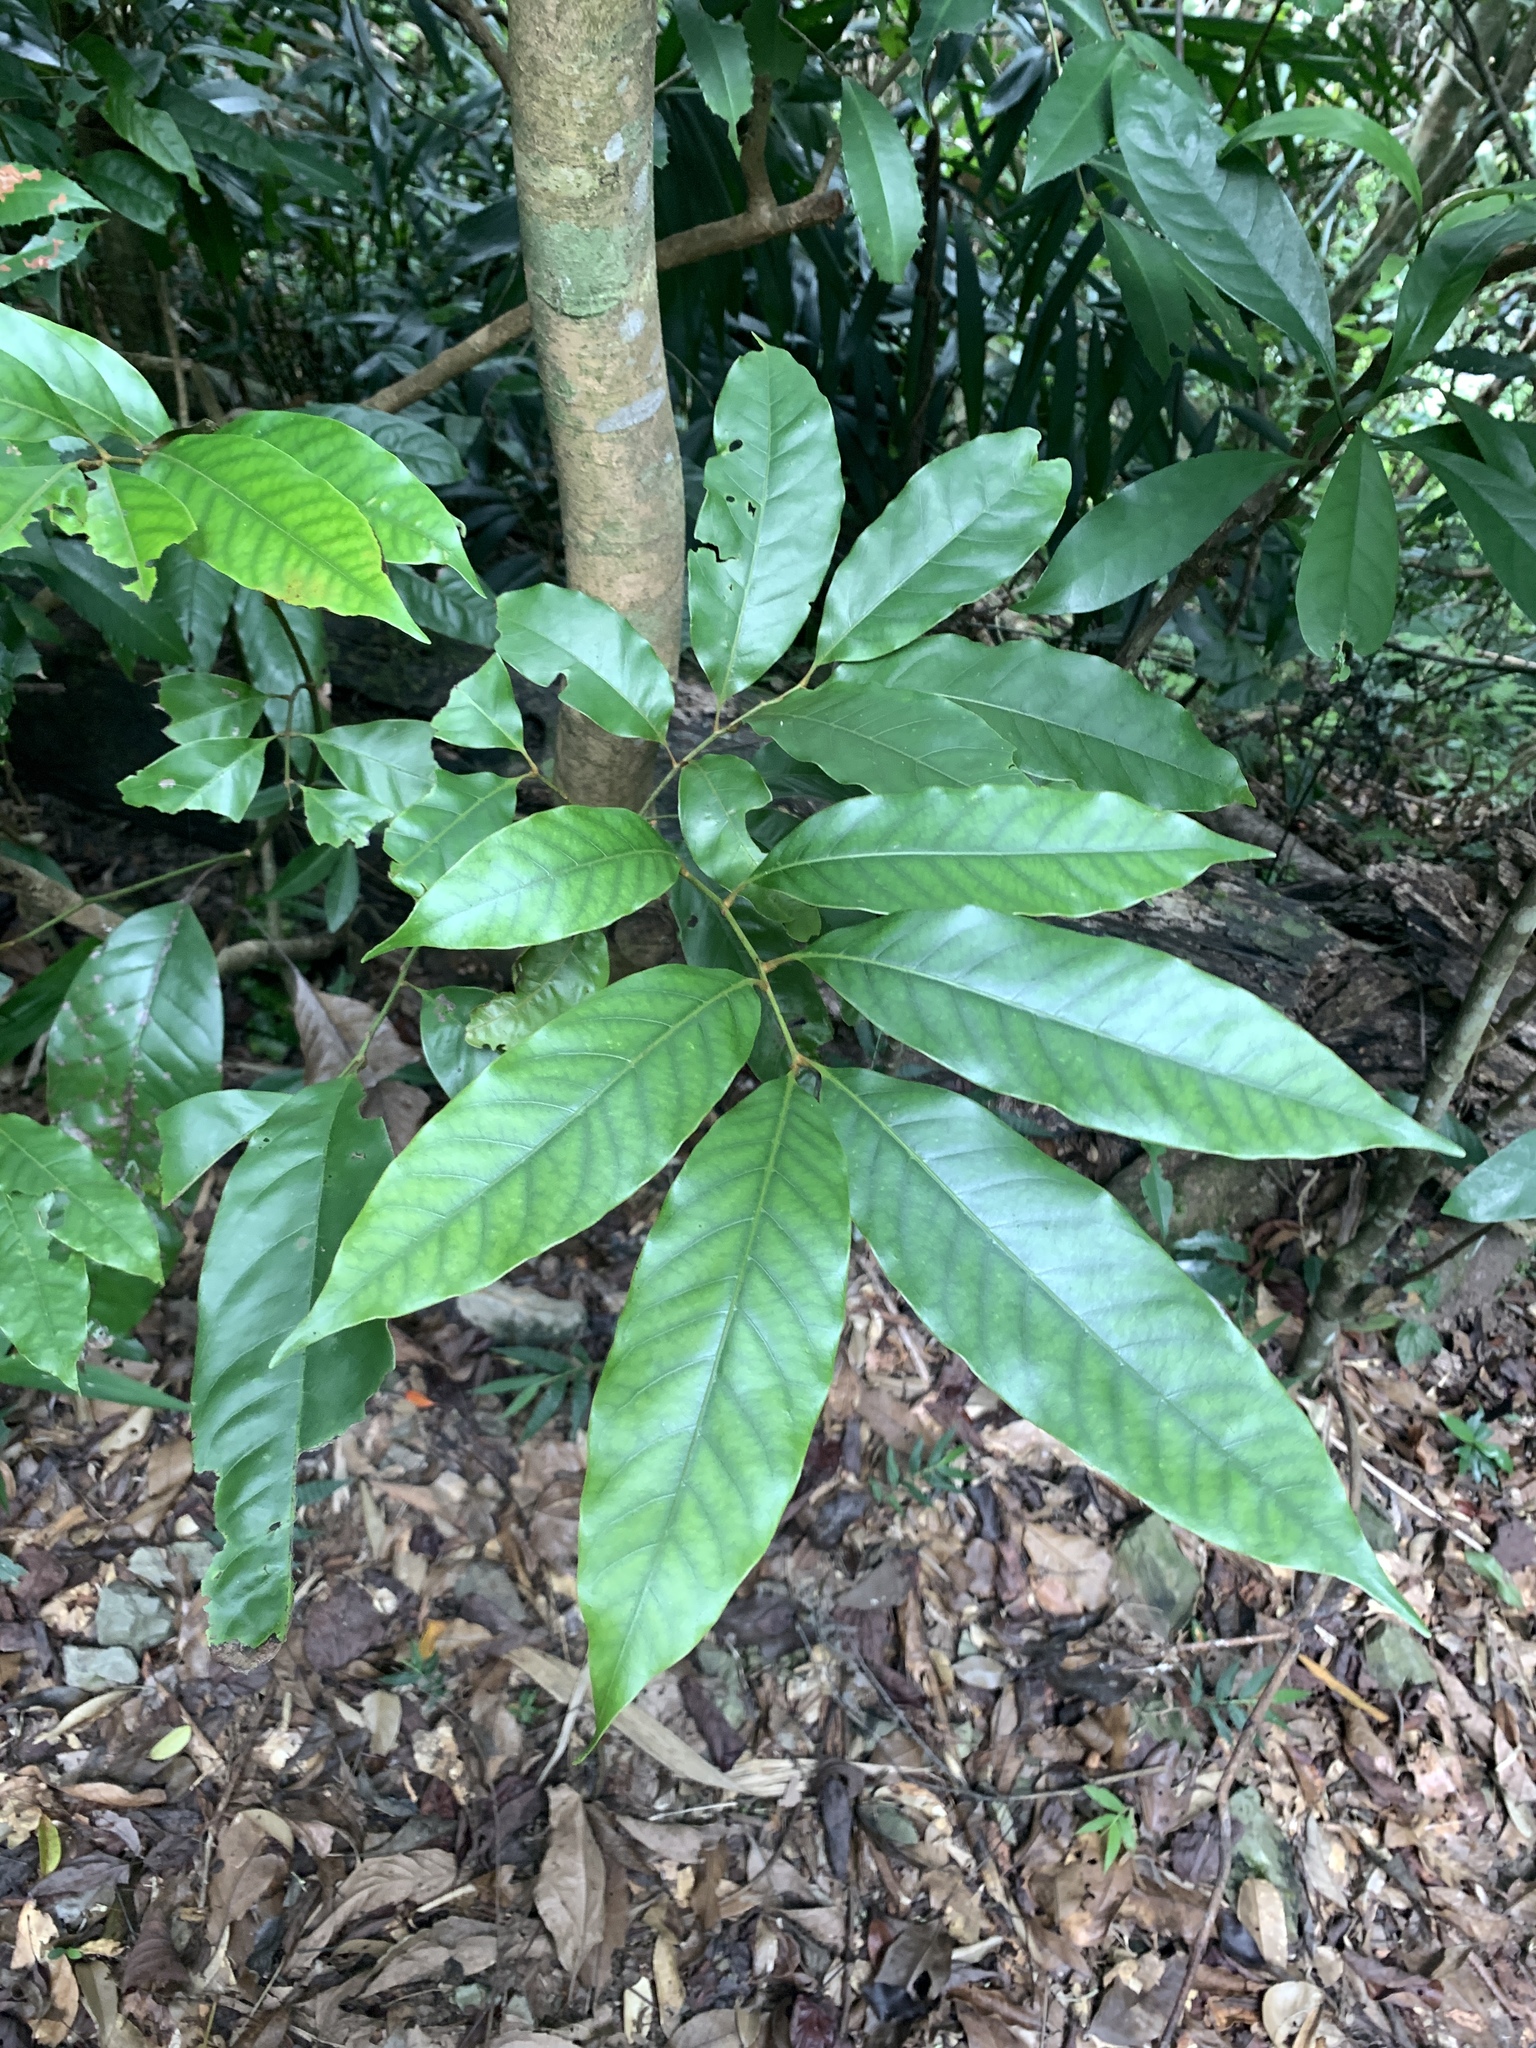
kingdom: Plantae
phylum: Tracheophyta
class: Magnoliopsida
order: Fagales
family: Juglandaceae
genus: Engelhardia
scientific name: Engelhardia roxburghiana
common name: Golden malay beam
